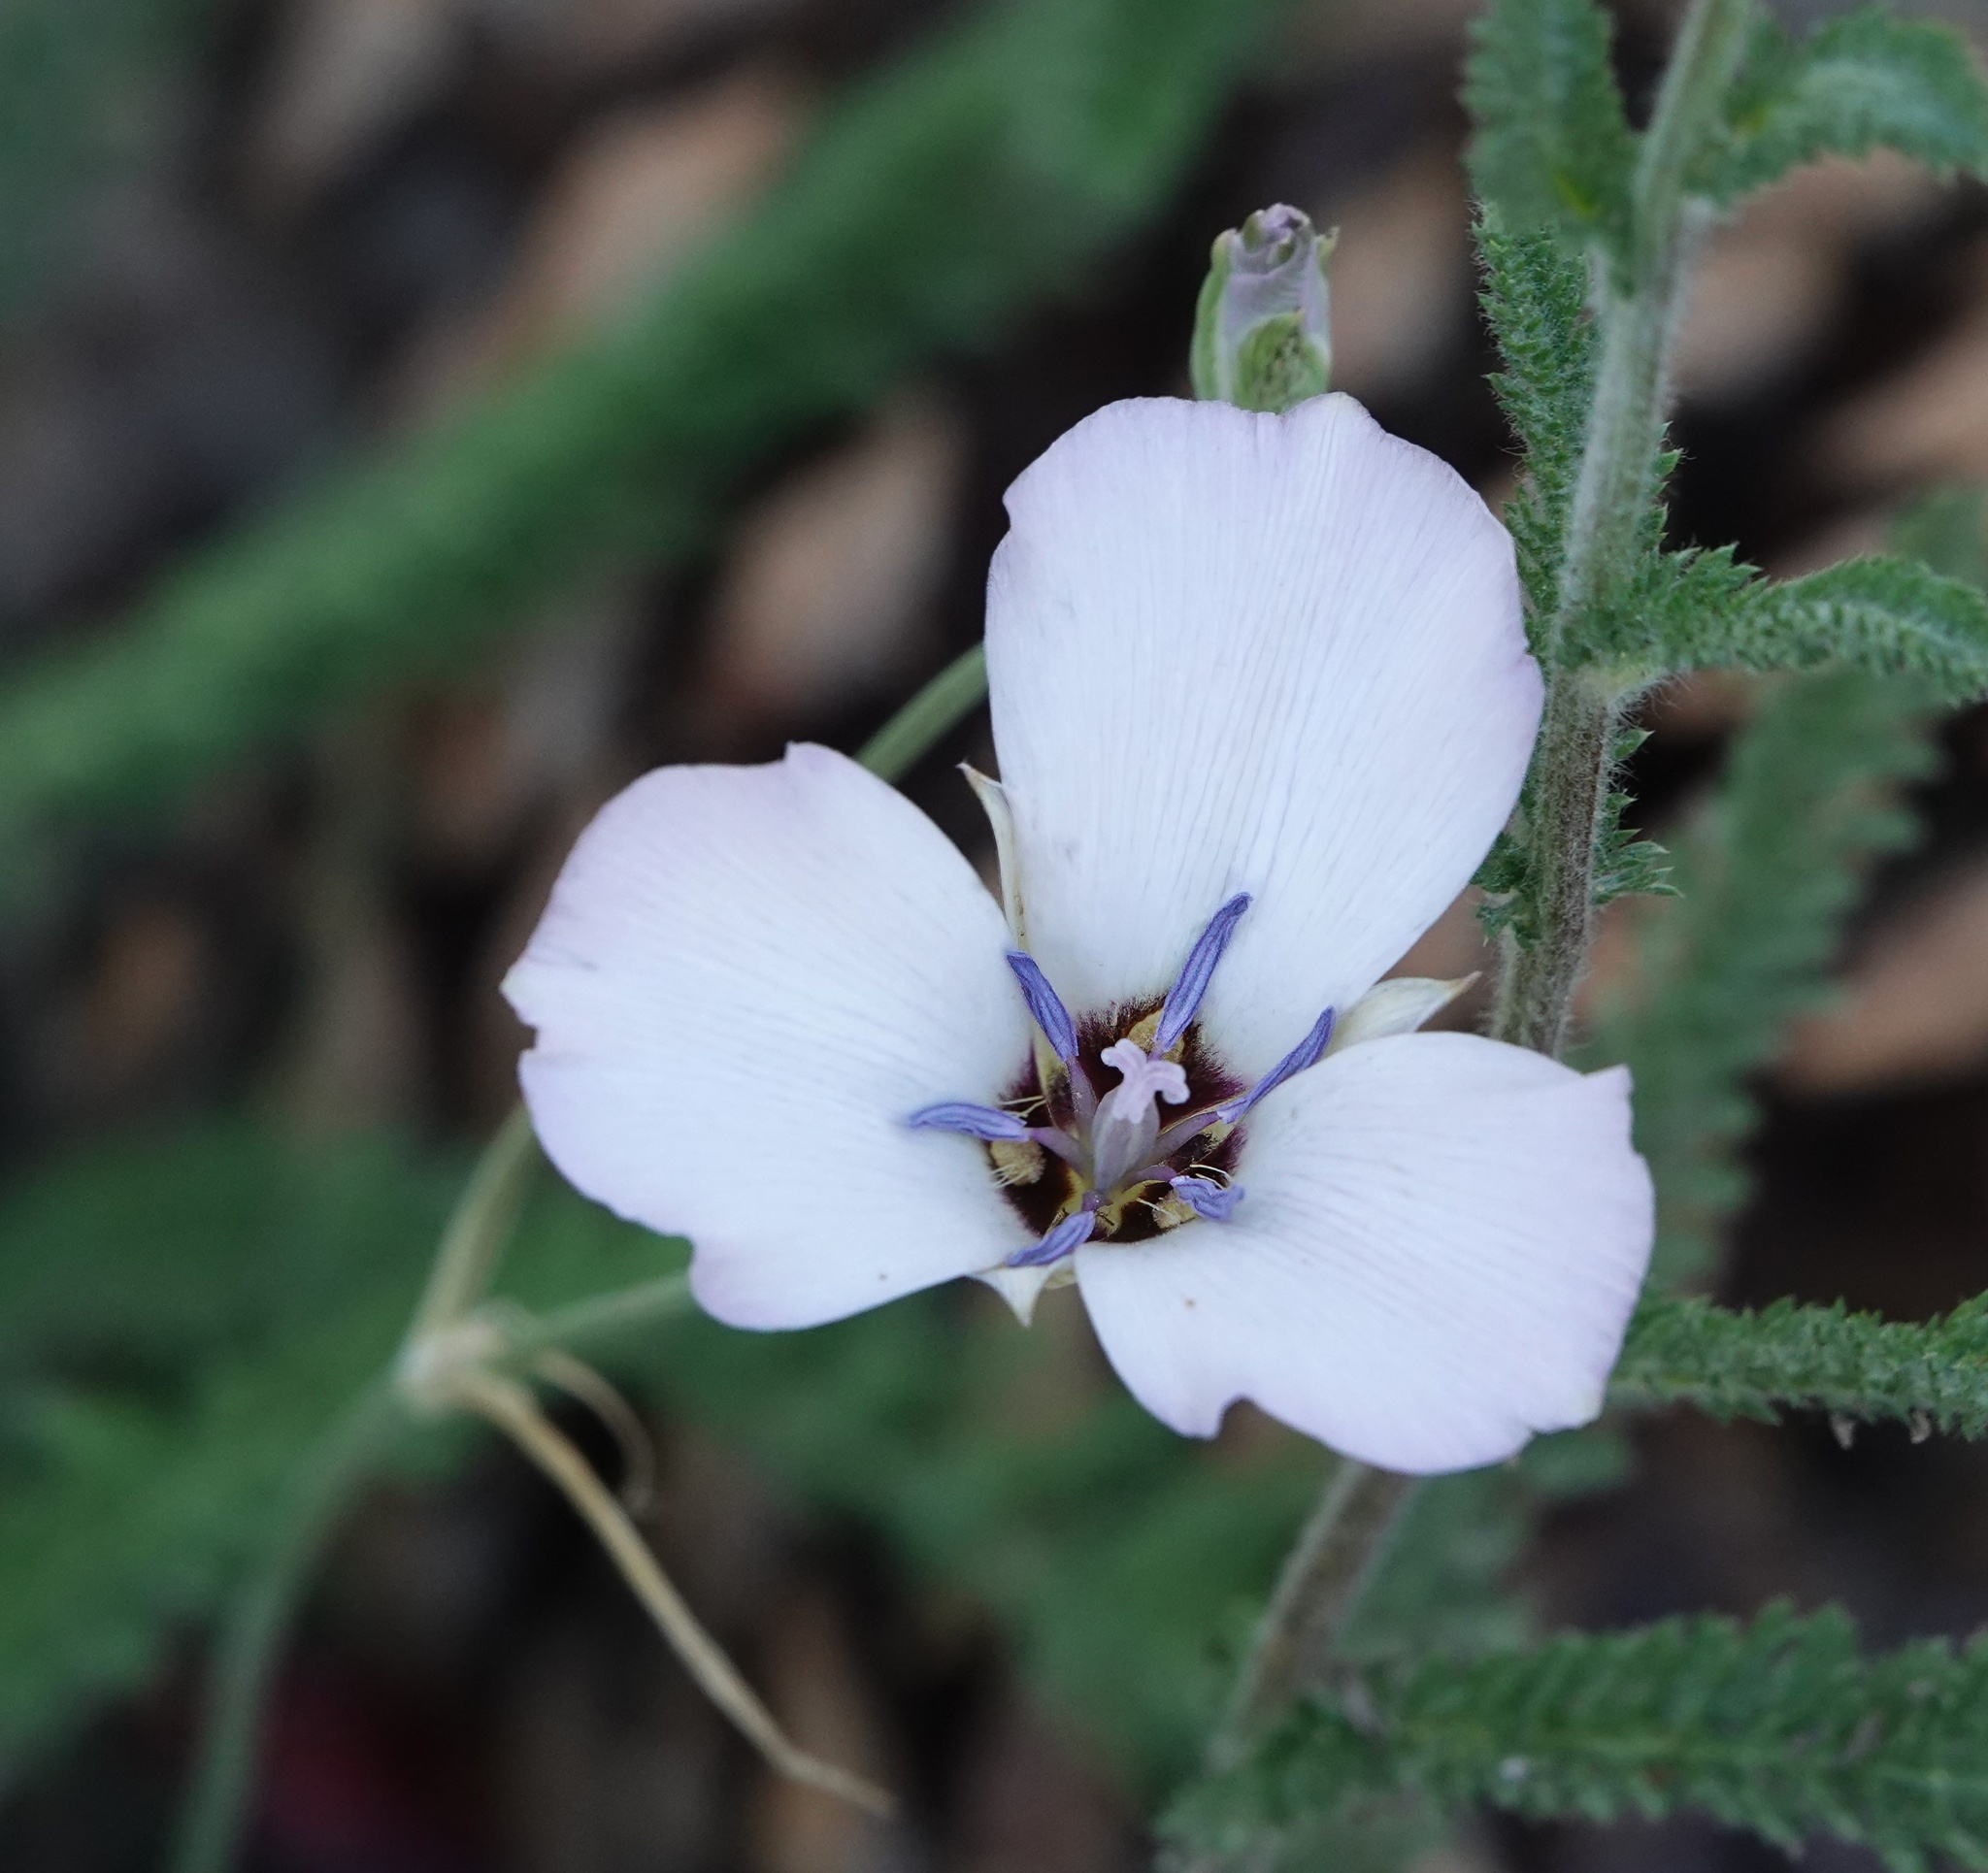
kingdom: Plantae
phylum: Tracheophyta
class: Liliopsida
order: Liliales
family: Liliaceae
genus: Calochortus
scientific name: Calochortus invenustus
